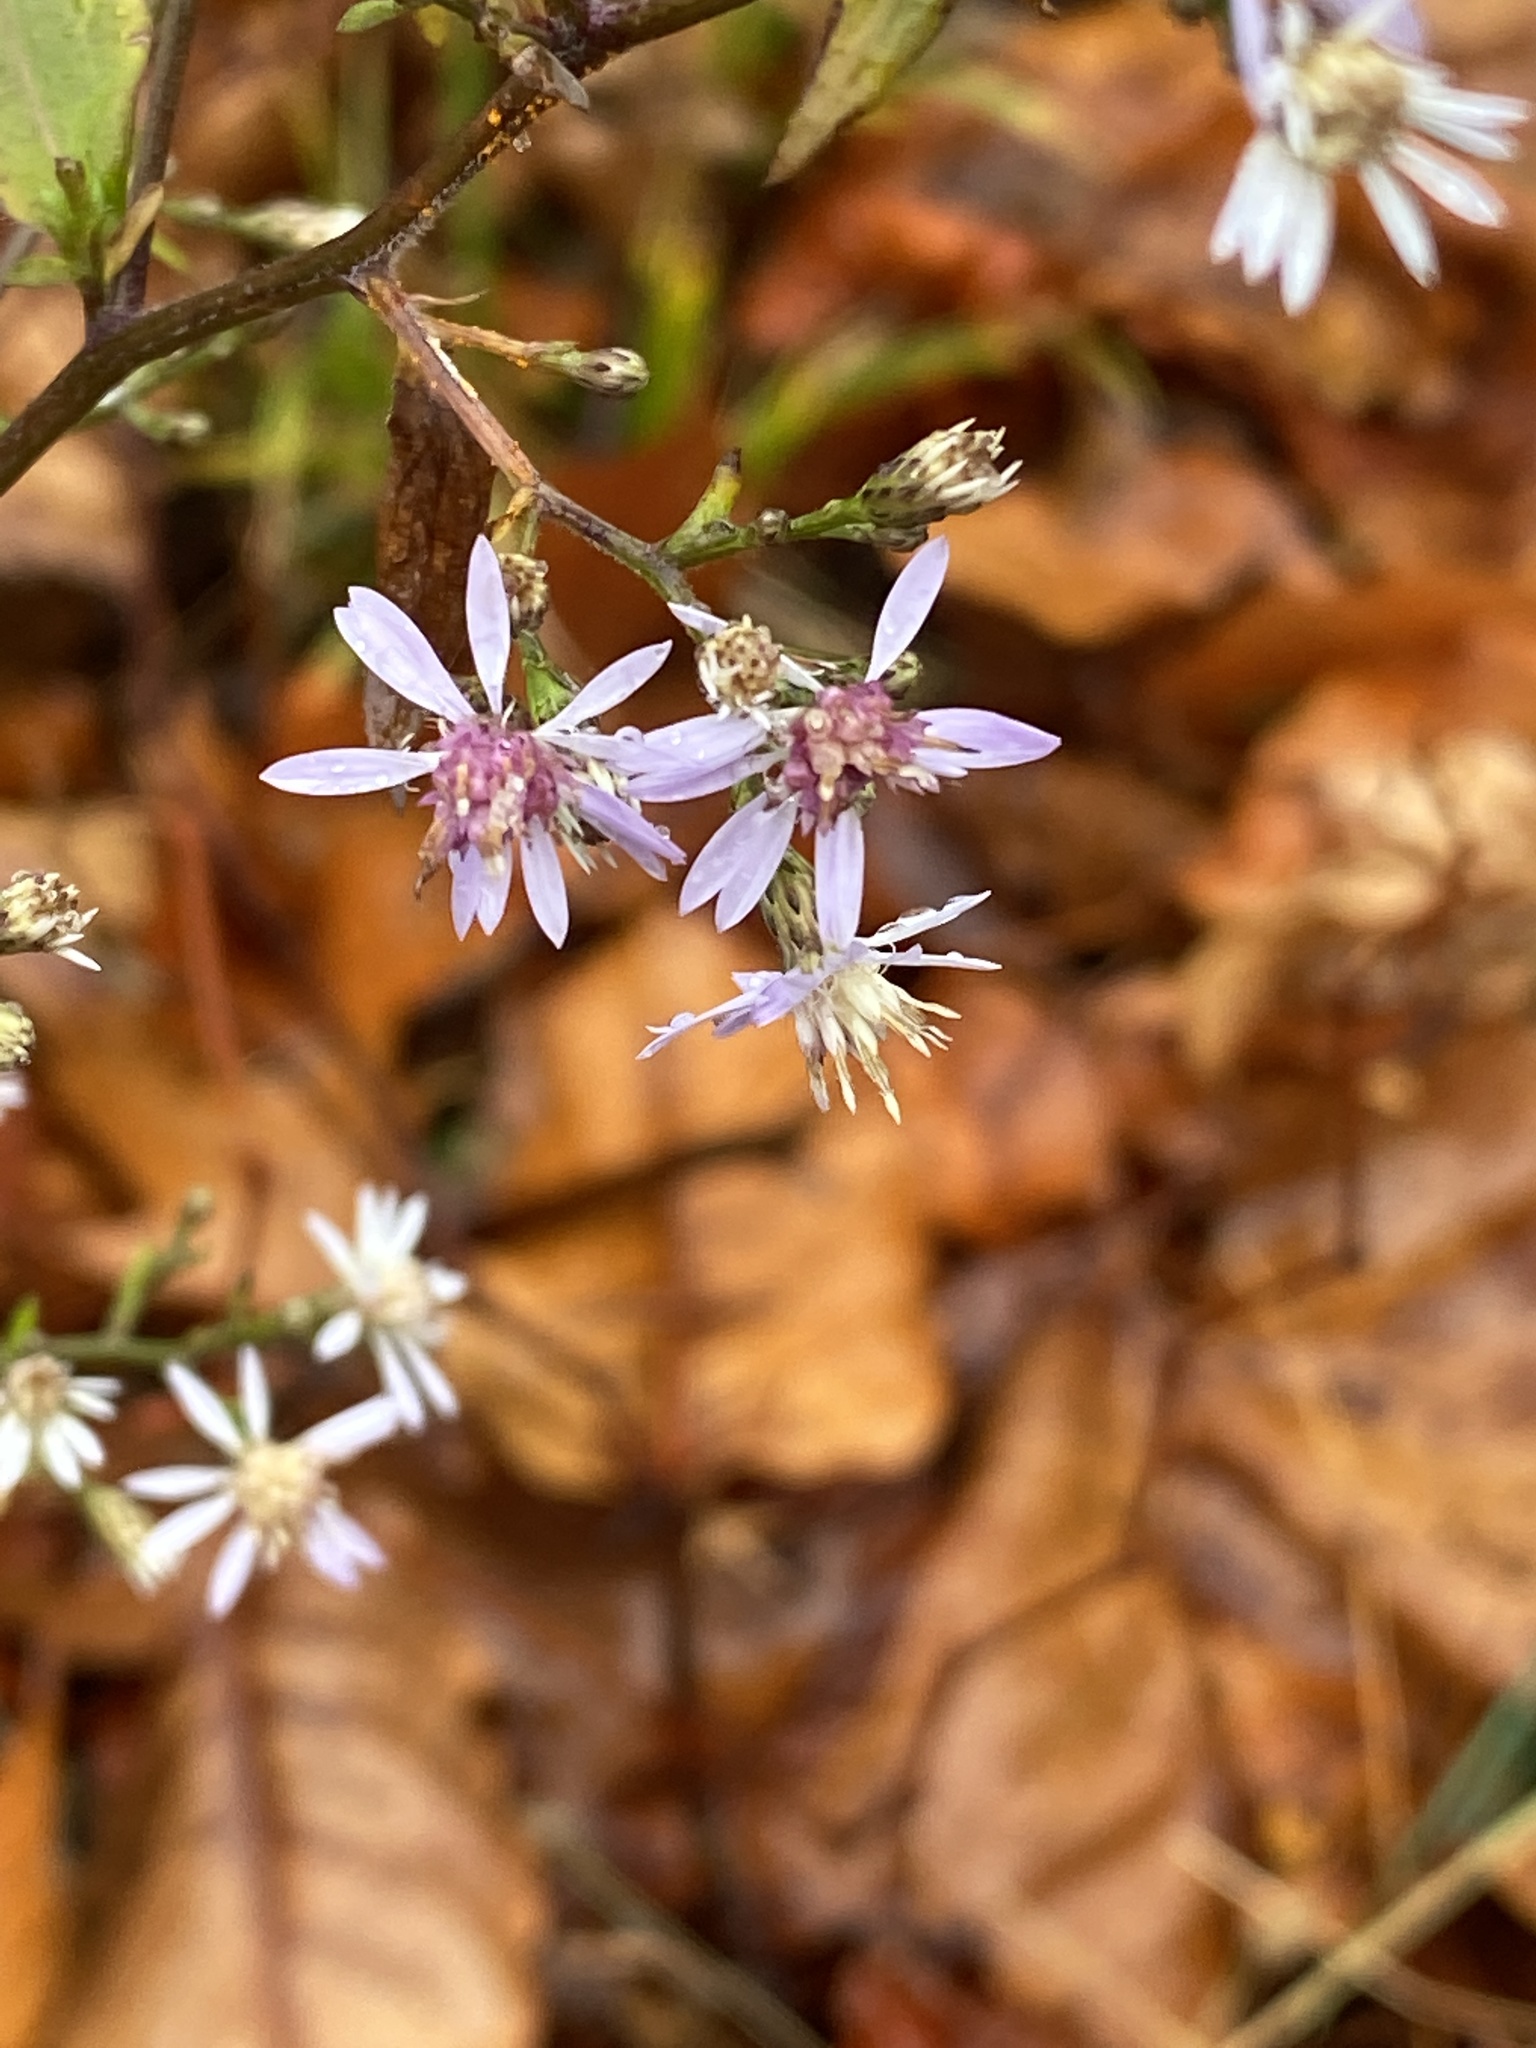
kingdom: Plantae
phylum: Tracheophyta
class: Magnoliopsida
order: Asterales
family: Asteraceae
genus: Symphyotrichum
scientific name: Symphyotrichum cordifolium
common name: Beeweed
